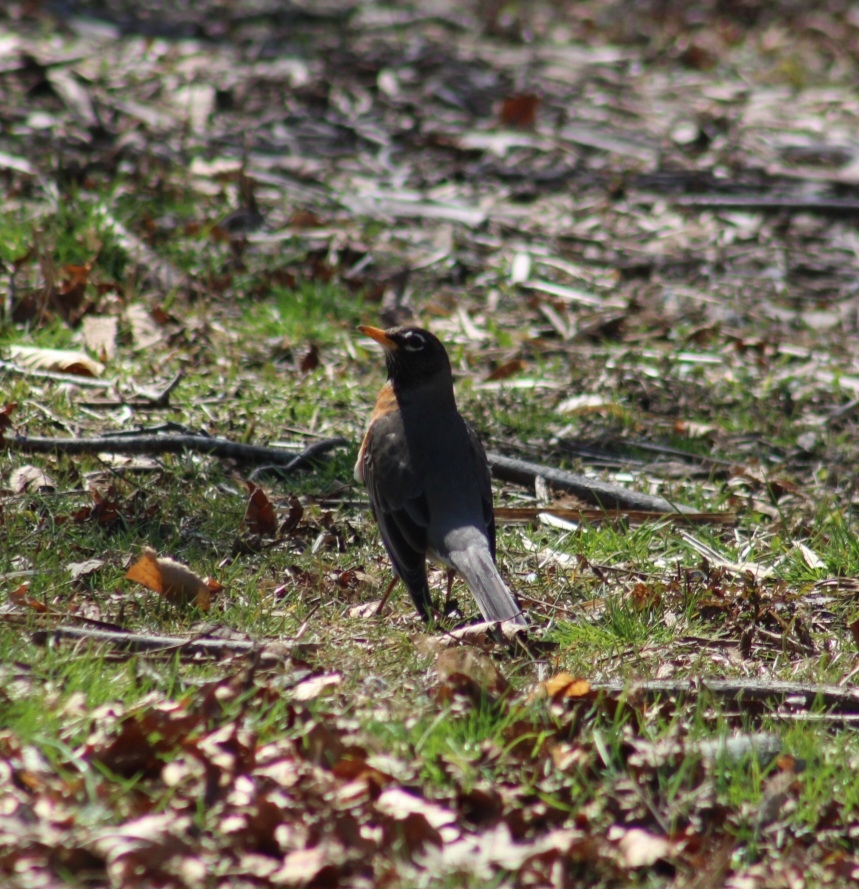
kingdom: Animalia
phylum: Chordata
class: Aves
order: Passeriformes
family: Turdidae
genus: Turdus
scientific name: Turdus migratorius
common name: American robin
